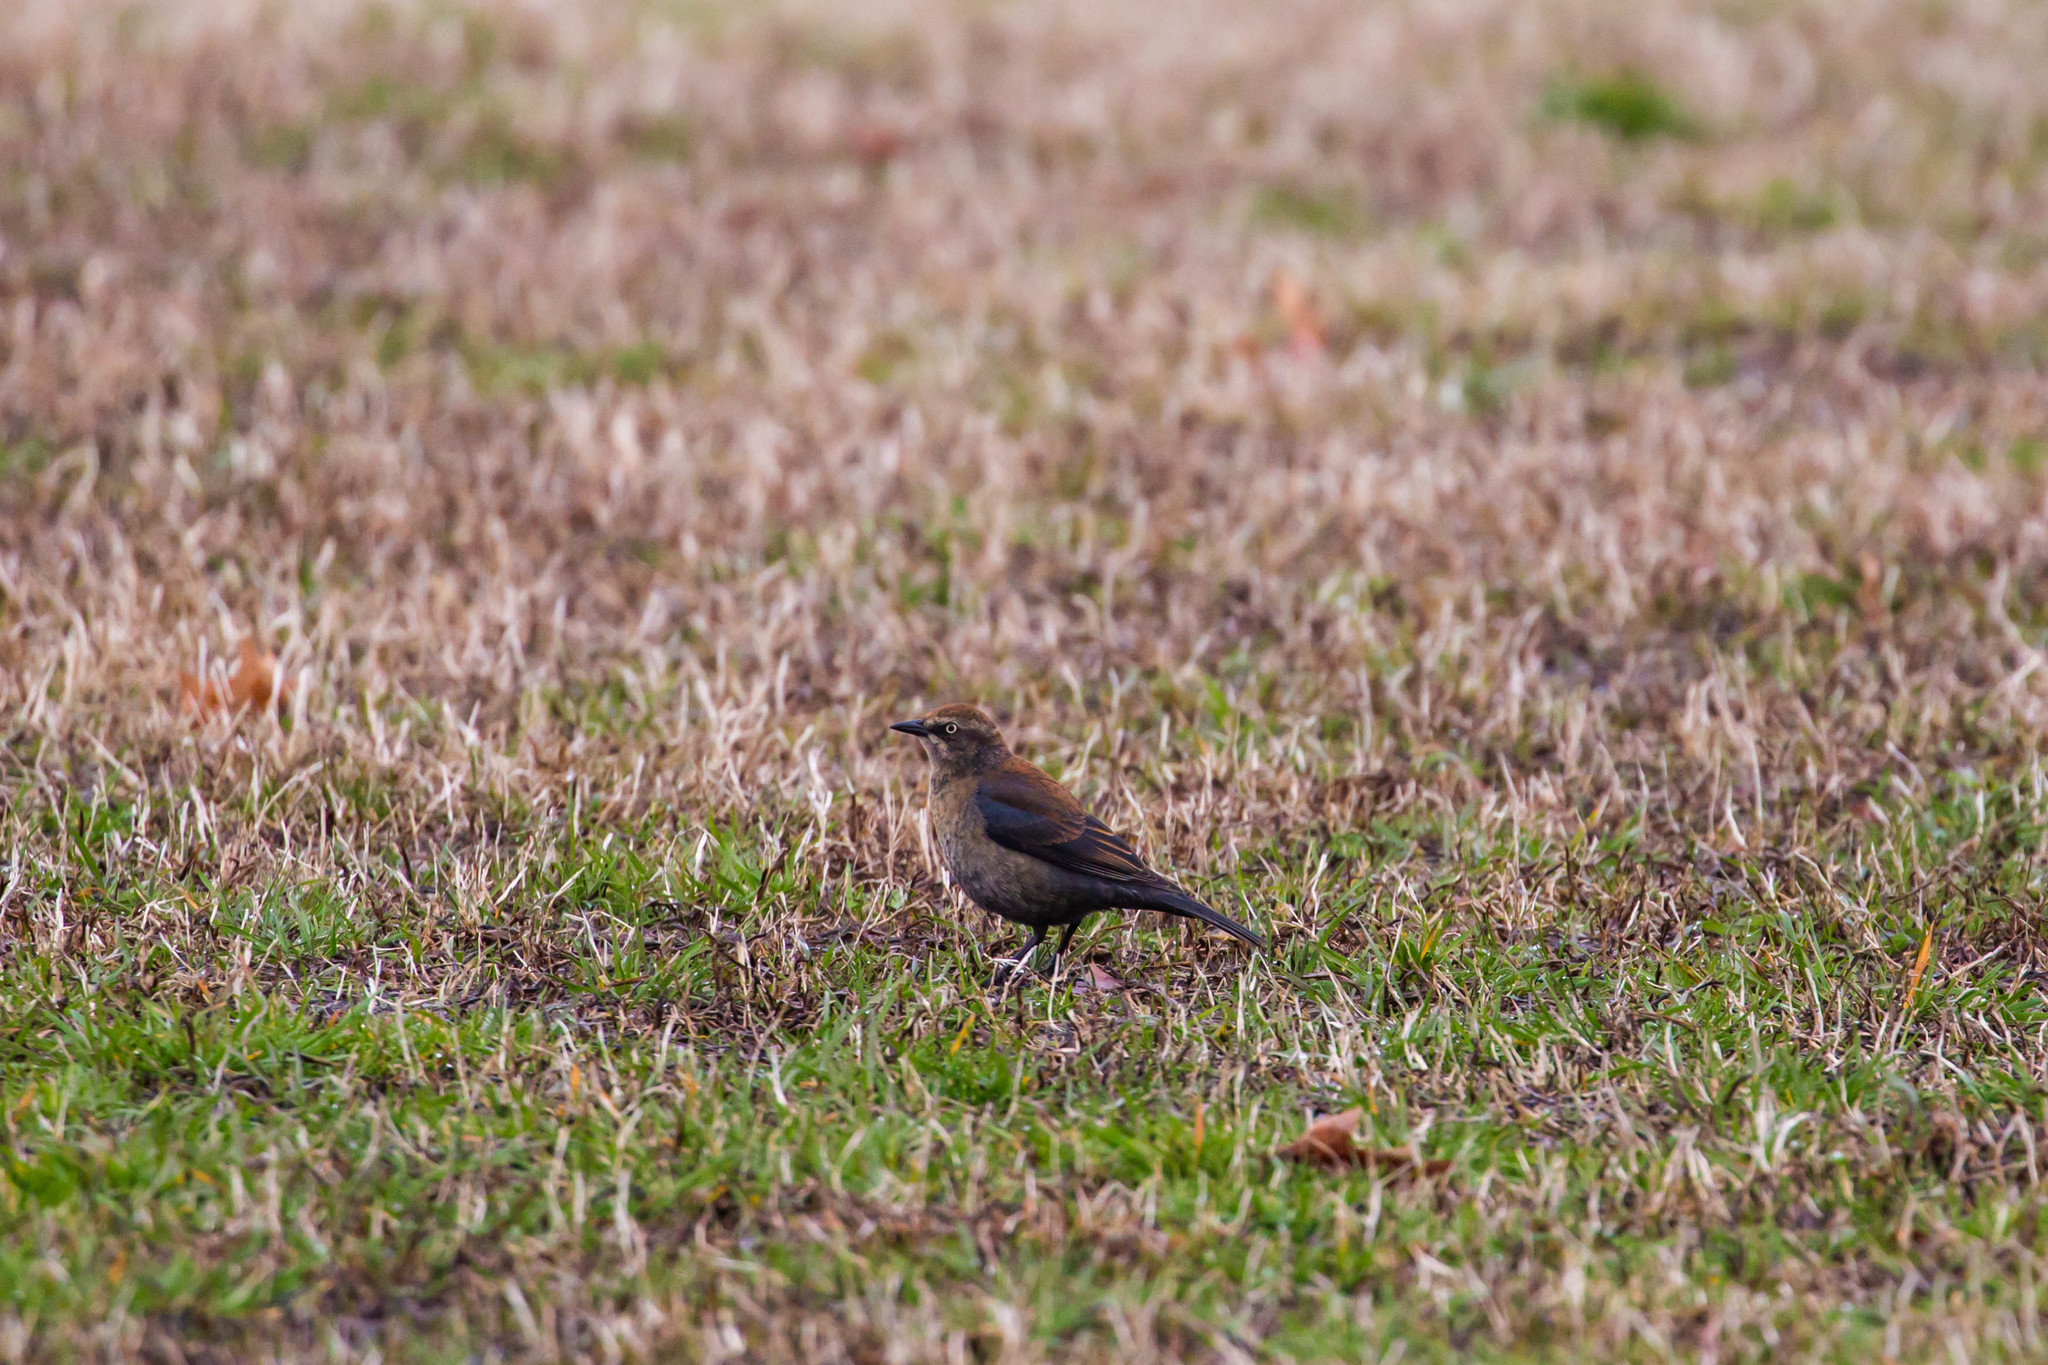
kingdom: Animalia
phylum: Chordata
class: Aves
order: Passeriformes
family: Icteridae
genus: Euphagus
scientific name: Euphagus carolinus
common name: Rusty blackbird
